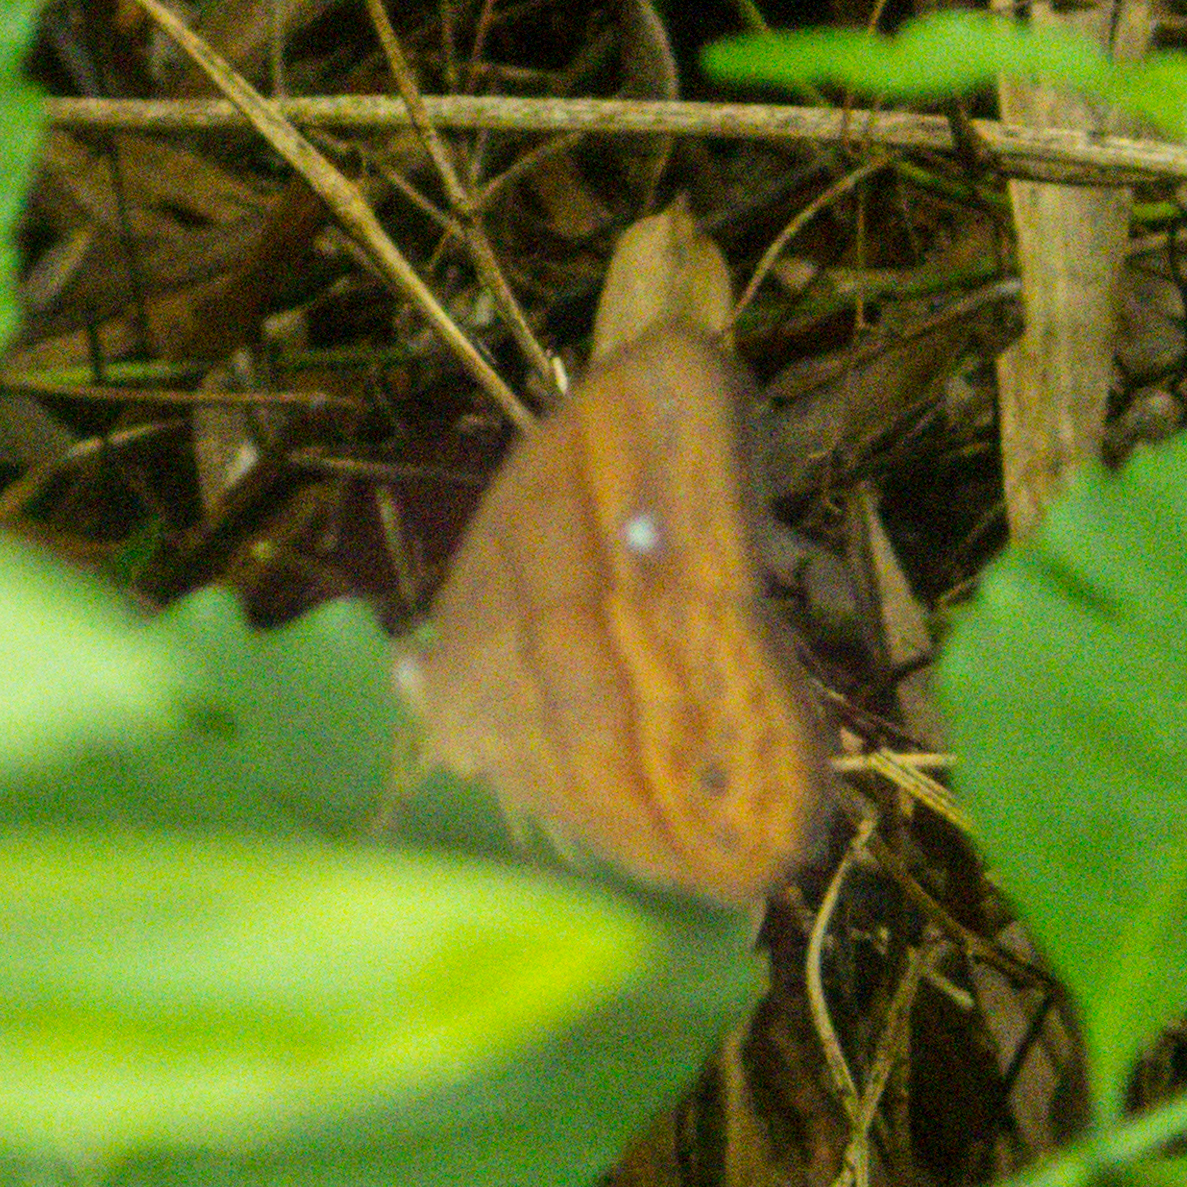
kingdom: Animalia
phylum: Arthropoda
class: Insecta
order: Lepidoptera
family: Nymphalidae
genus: Mycalesis
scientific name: Mycalesis mnasicles
